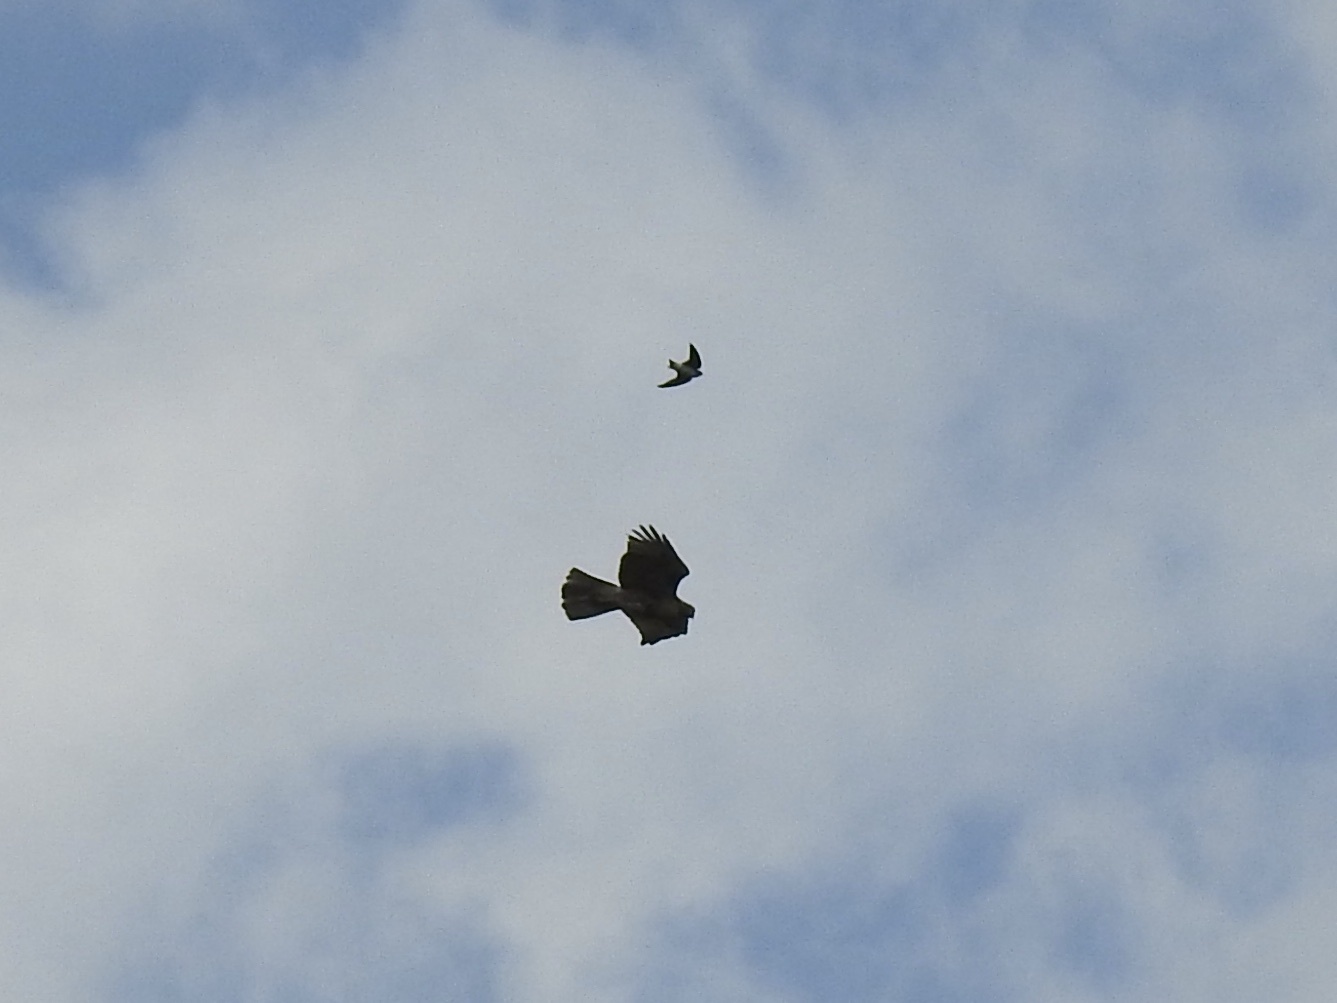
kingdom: Animalia
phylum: Chordata
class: Aves
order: Accipitriformes
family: Accipitridae
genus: Buteo
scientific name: Buteo jamaicensis
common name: Red-tailed hawk
